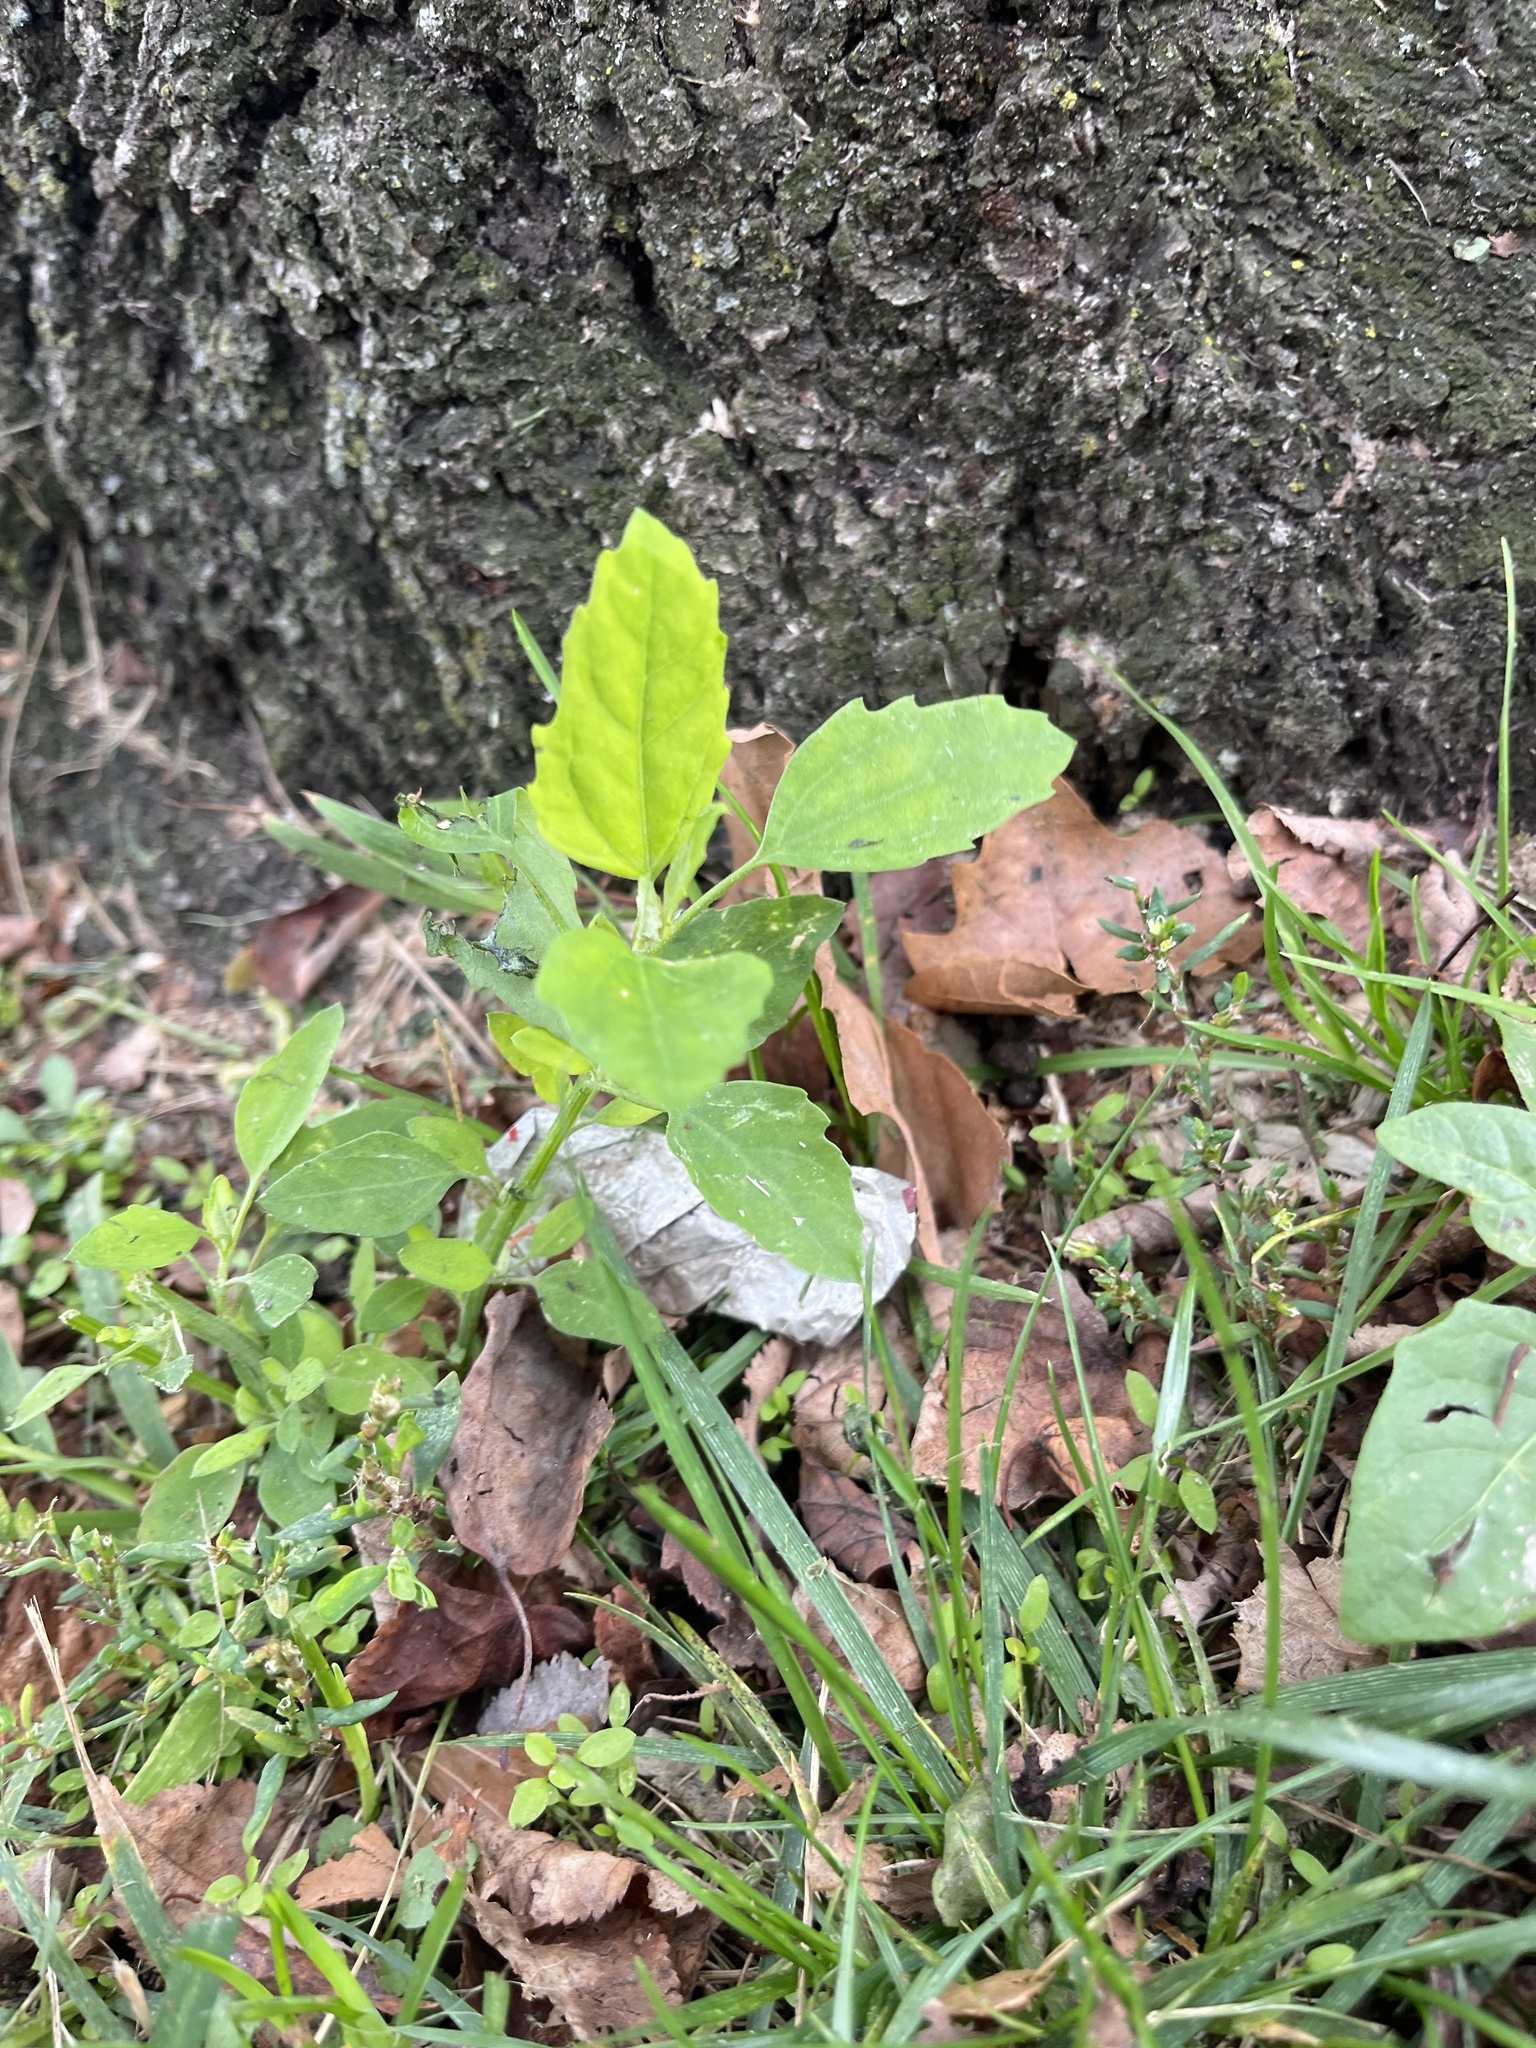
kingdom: Plantae
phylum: Tracheophyta
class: Magnoliopsida
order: Caryophyllales
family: Amaranthaceae
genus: Chenopodium
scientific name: Chenopodium album
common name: Fat-hen
